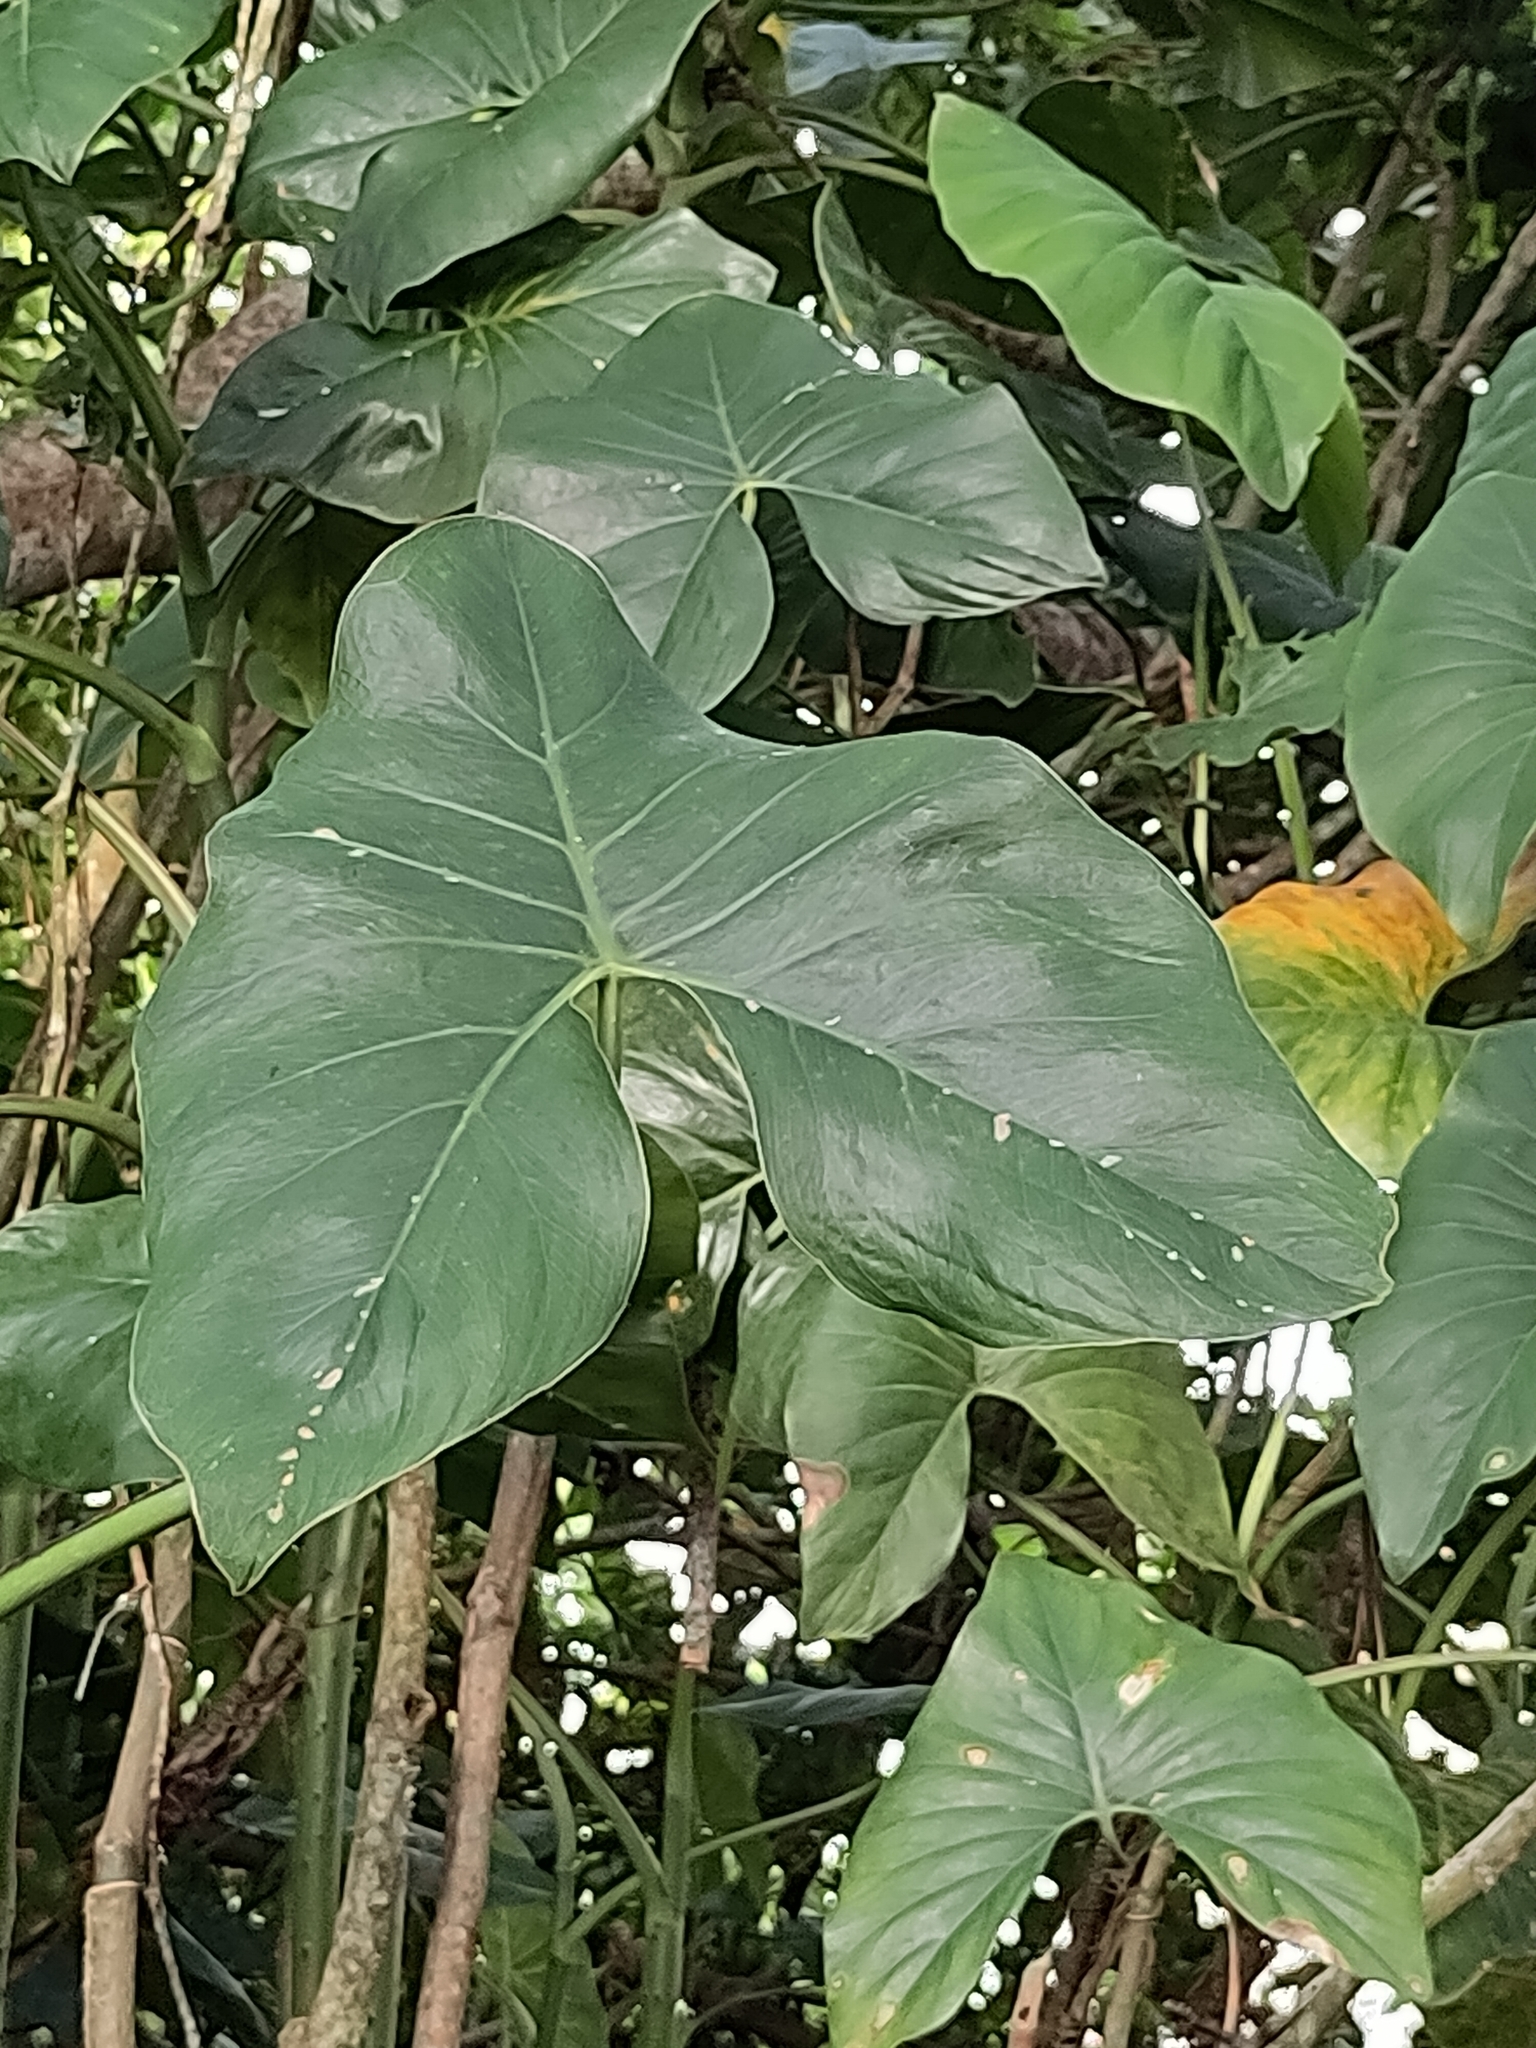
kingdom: Plantae
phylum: Tracheophyta
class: Liliopsida
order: Alismatales
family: Araceae
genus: Montrichardia
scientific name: Montrichardia arborescens
